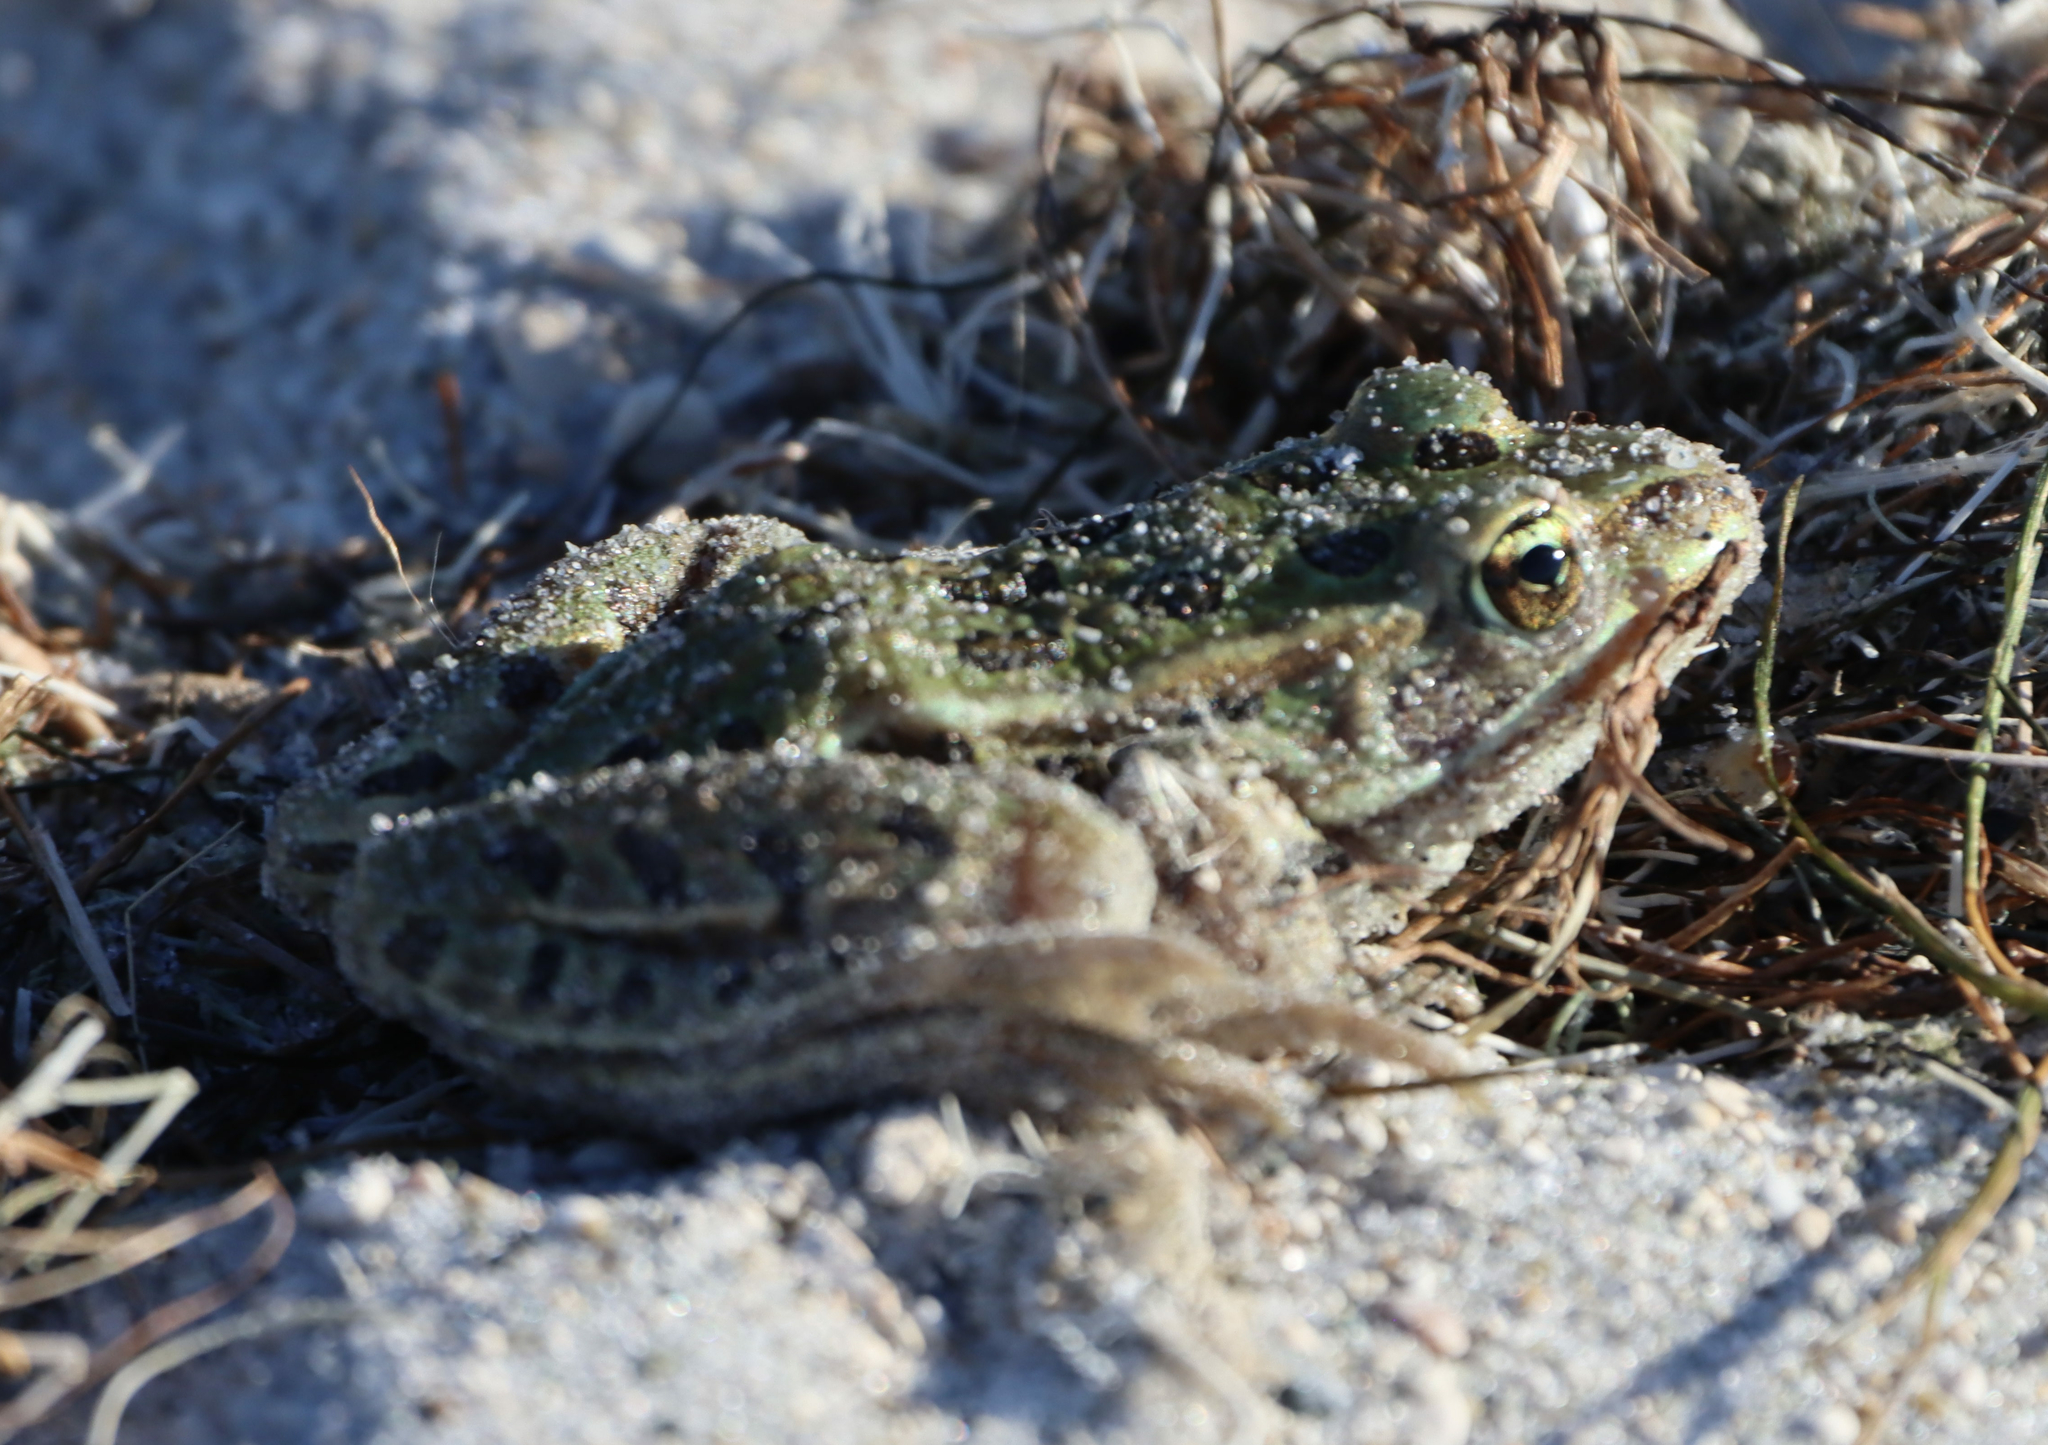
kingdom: Animalia
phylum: Chordata
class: Amphibia
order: Anura
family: Ranidae
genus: Lithobates
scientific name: Lithobates pipiens
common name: Northern leopard frog
